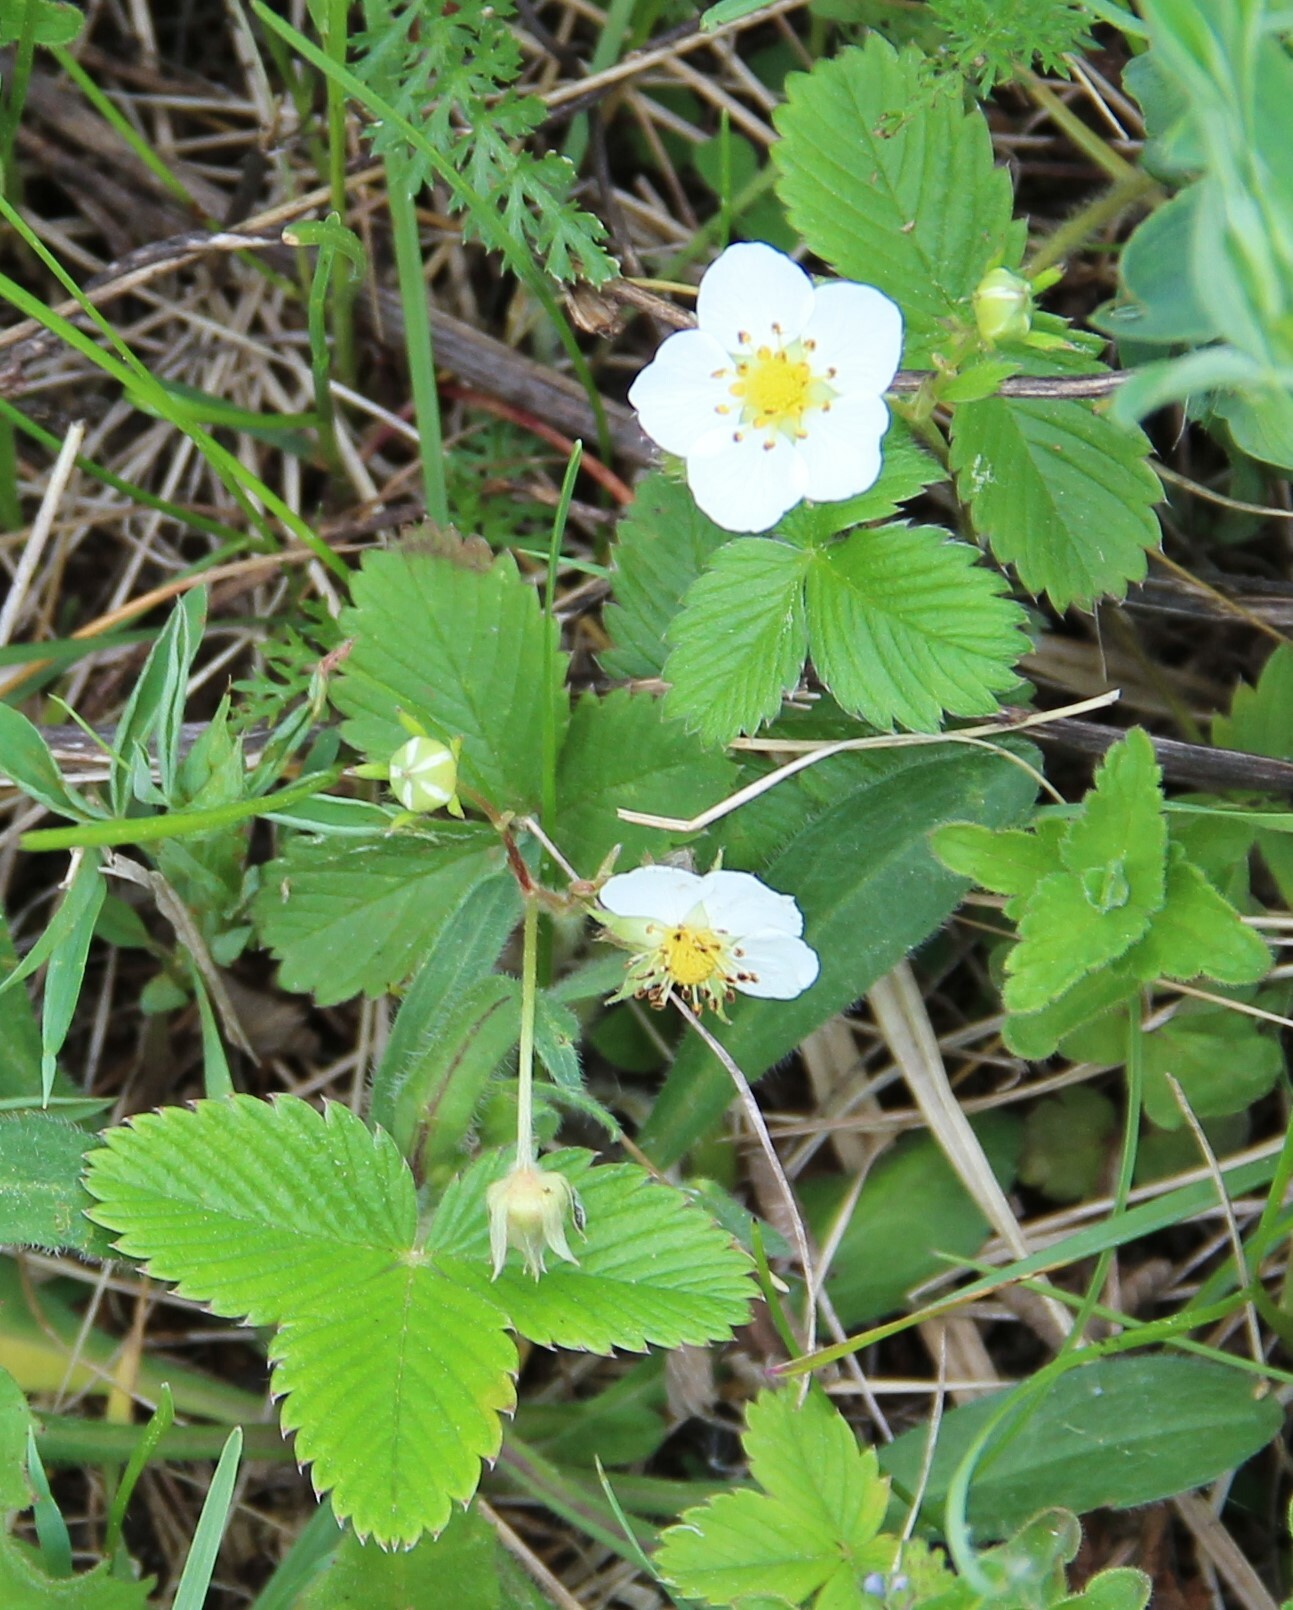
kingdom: Plantae
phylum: Tracheophyta
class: Magnoliopsida
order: Rosales
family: Rosaceae
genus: Fragaria
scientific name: Fragaria viridis
